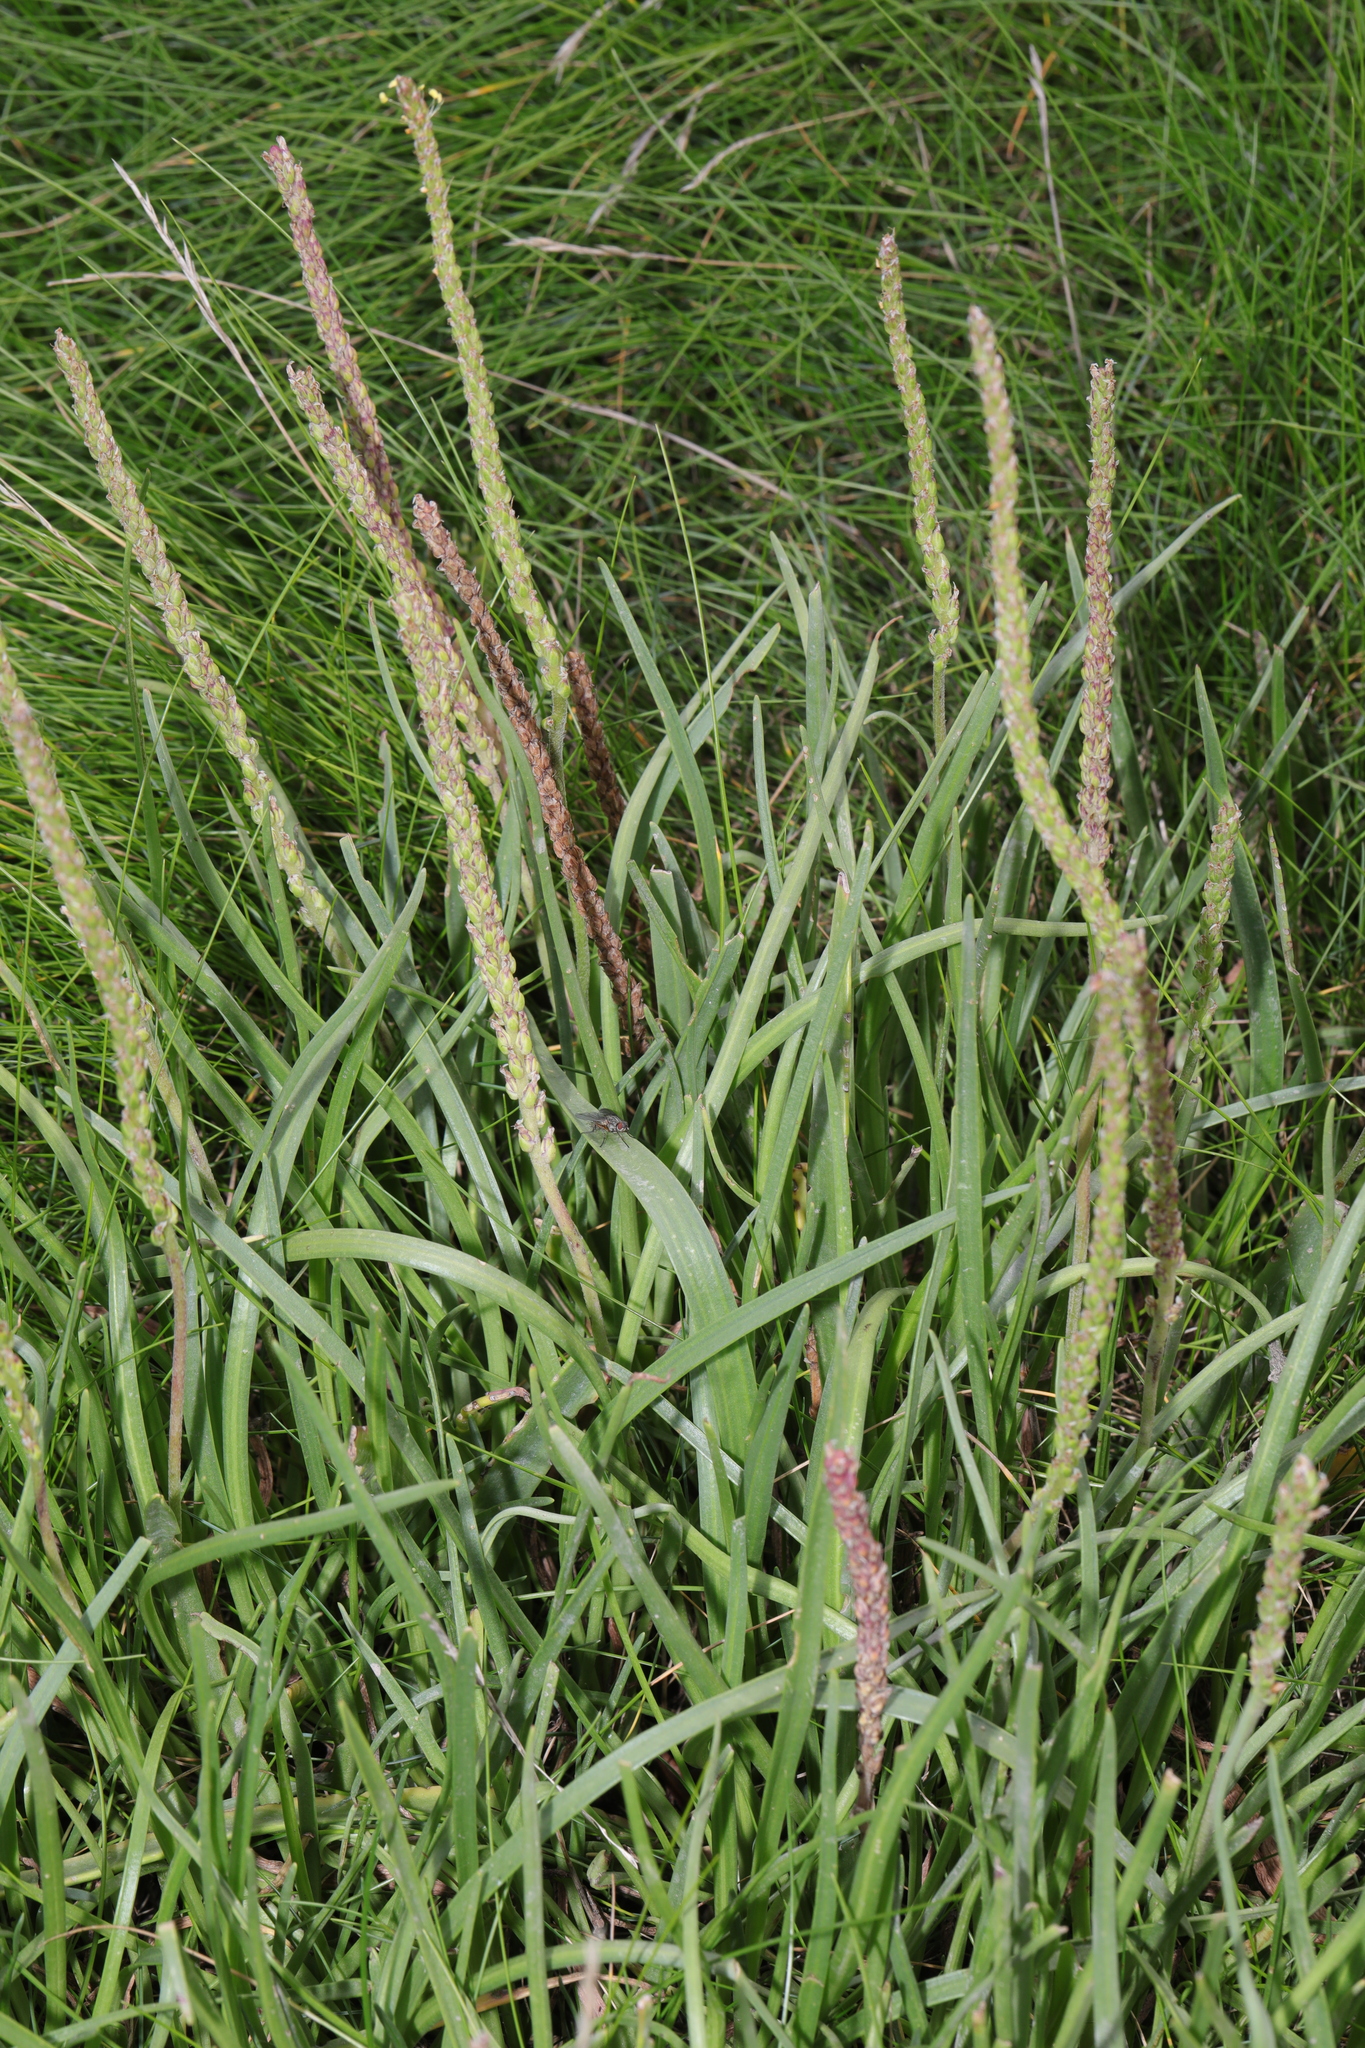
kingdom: Plantae
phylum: Tracheophyta
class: Magnoliopsida
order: Lamiales
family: Plantaginaceae
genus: Plantago
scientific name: Plantago maritima
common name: Sea plantain
